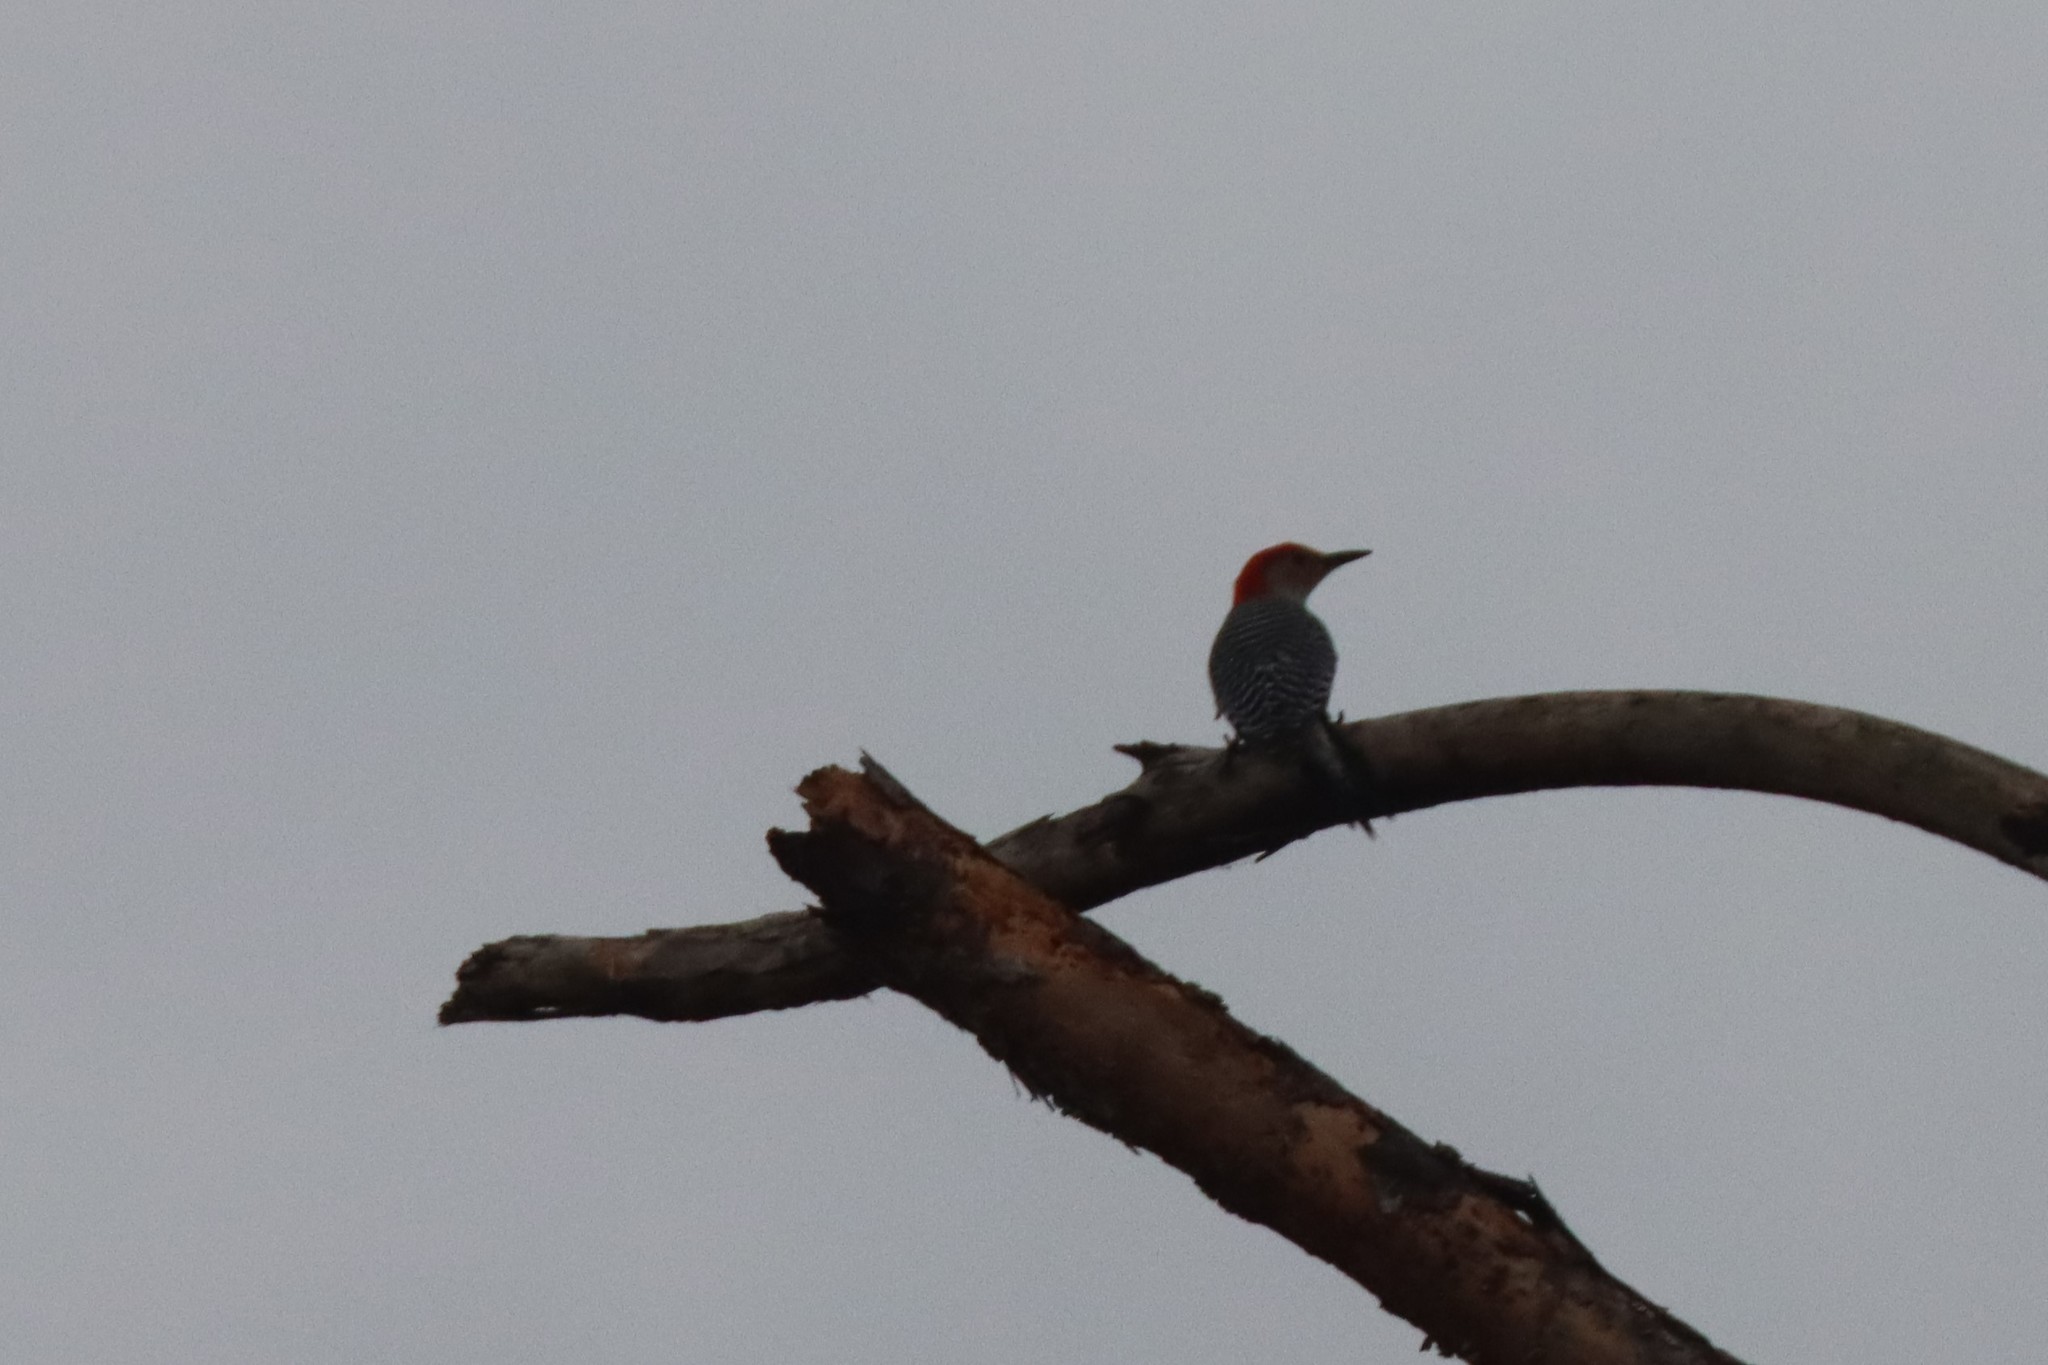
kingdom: Animalia
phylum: Chordata
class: Aves
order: Piciformes
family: Picidae
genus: Melanerpes
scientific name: Melanerpes carolinus
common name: Red-bellied woodpecker
